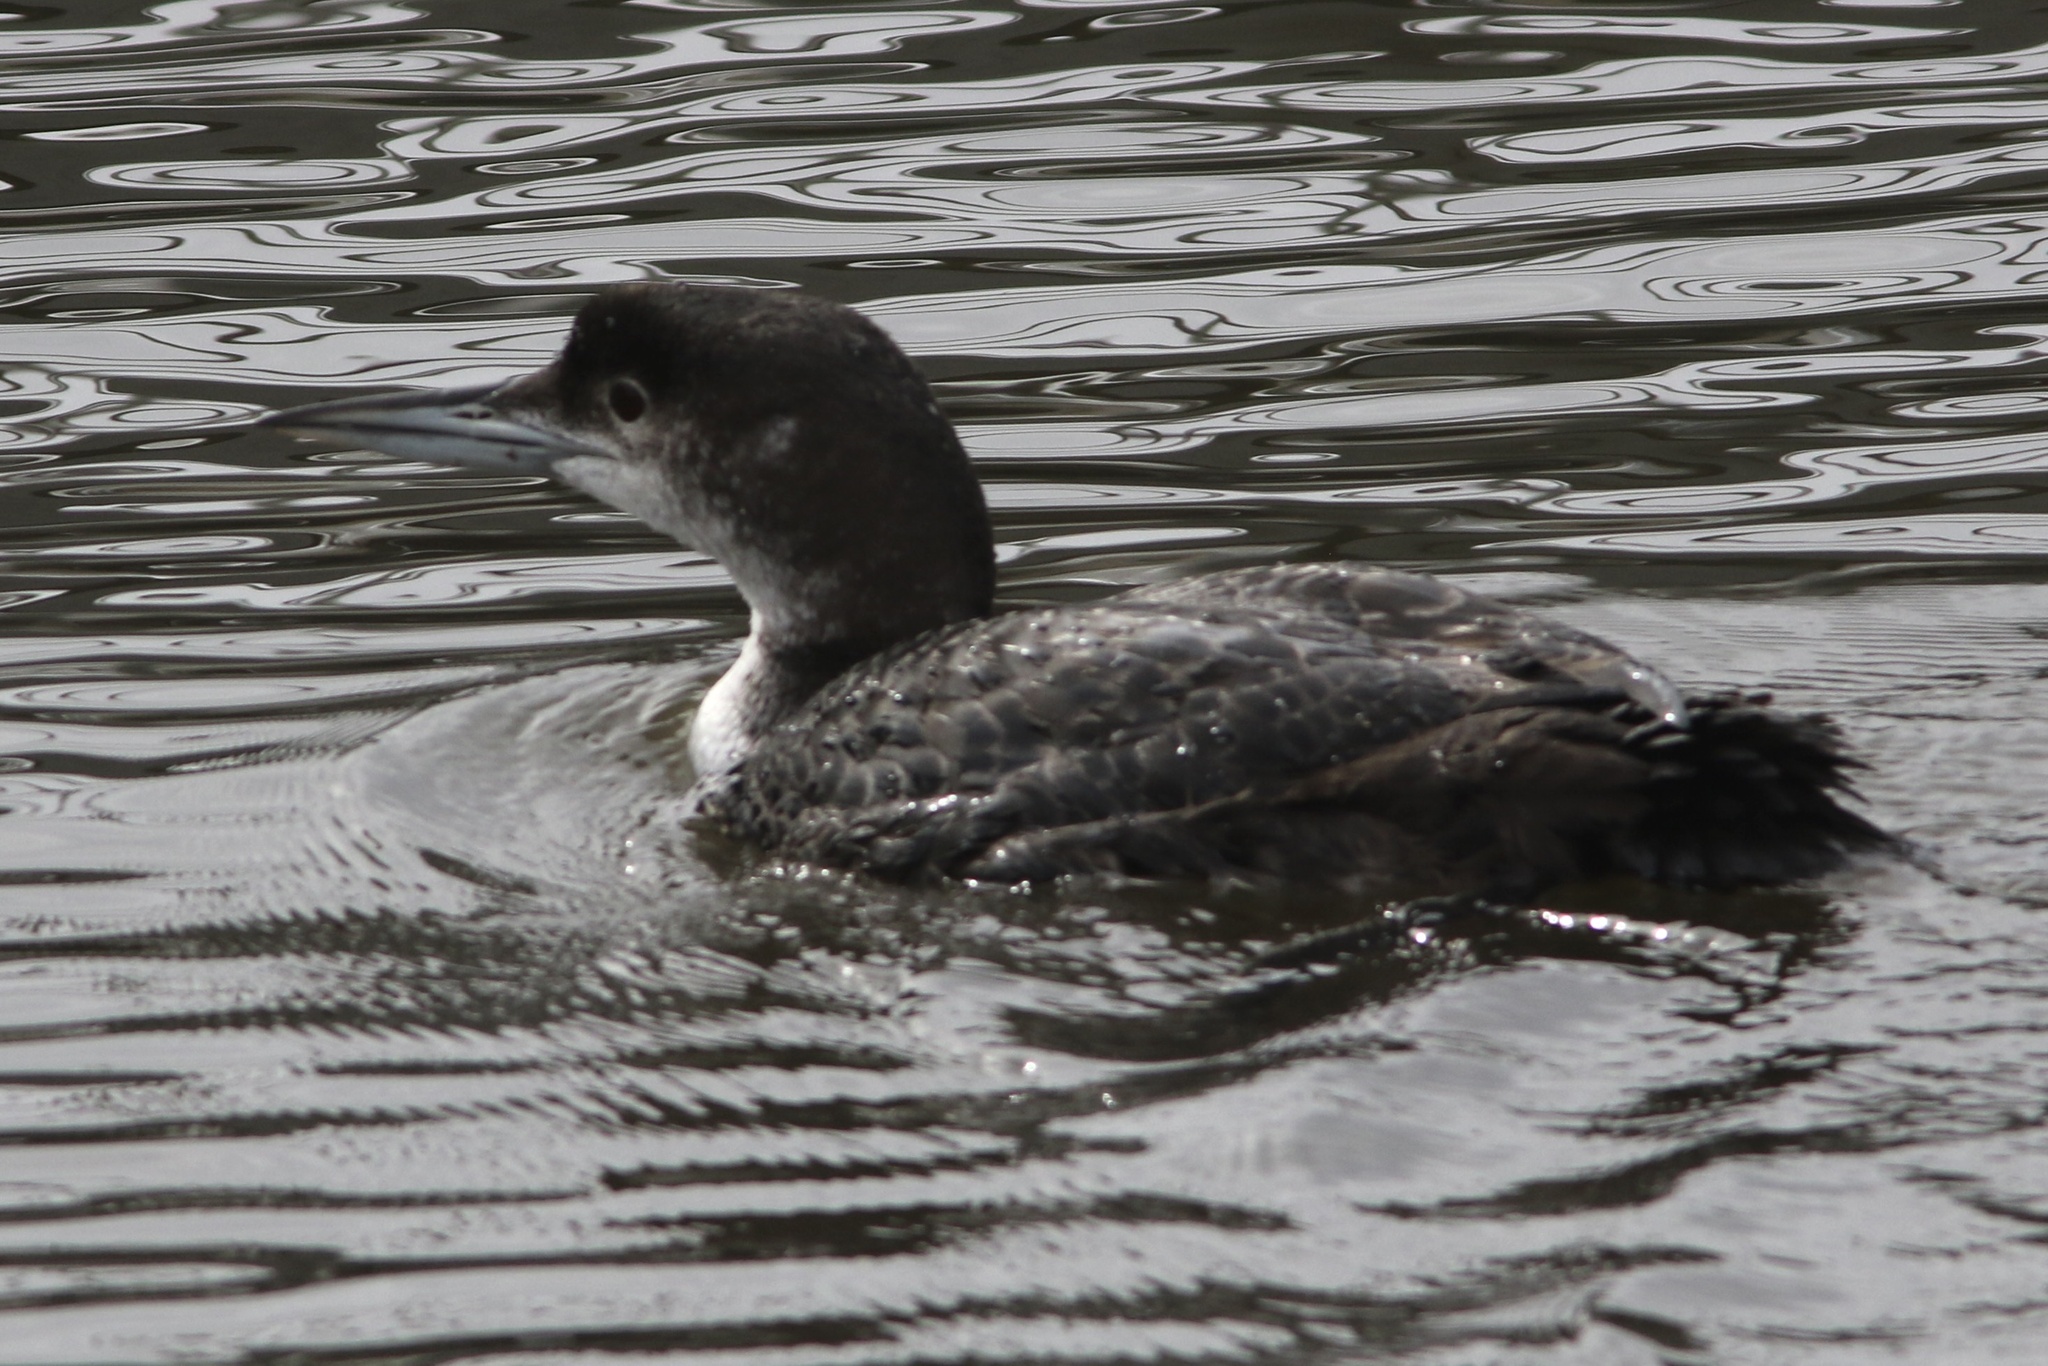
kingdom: Animalia
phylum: Chordata
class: Aves
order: Gaviiformes
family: Gaviidae
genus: Gavia
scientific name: Gavia immer
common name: Common loon
